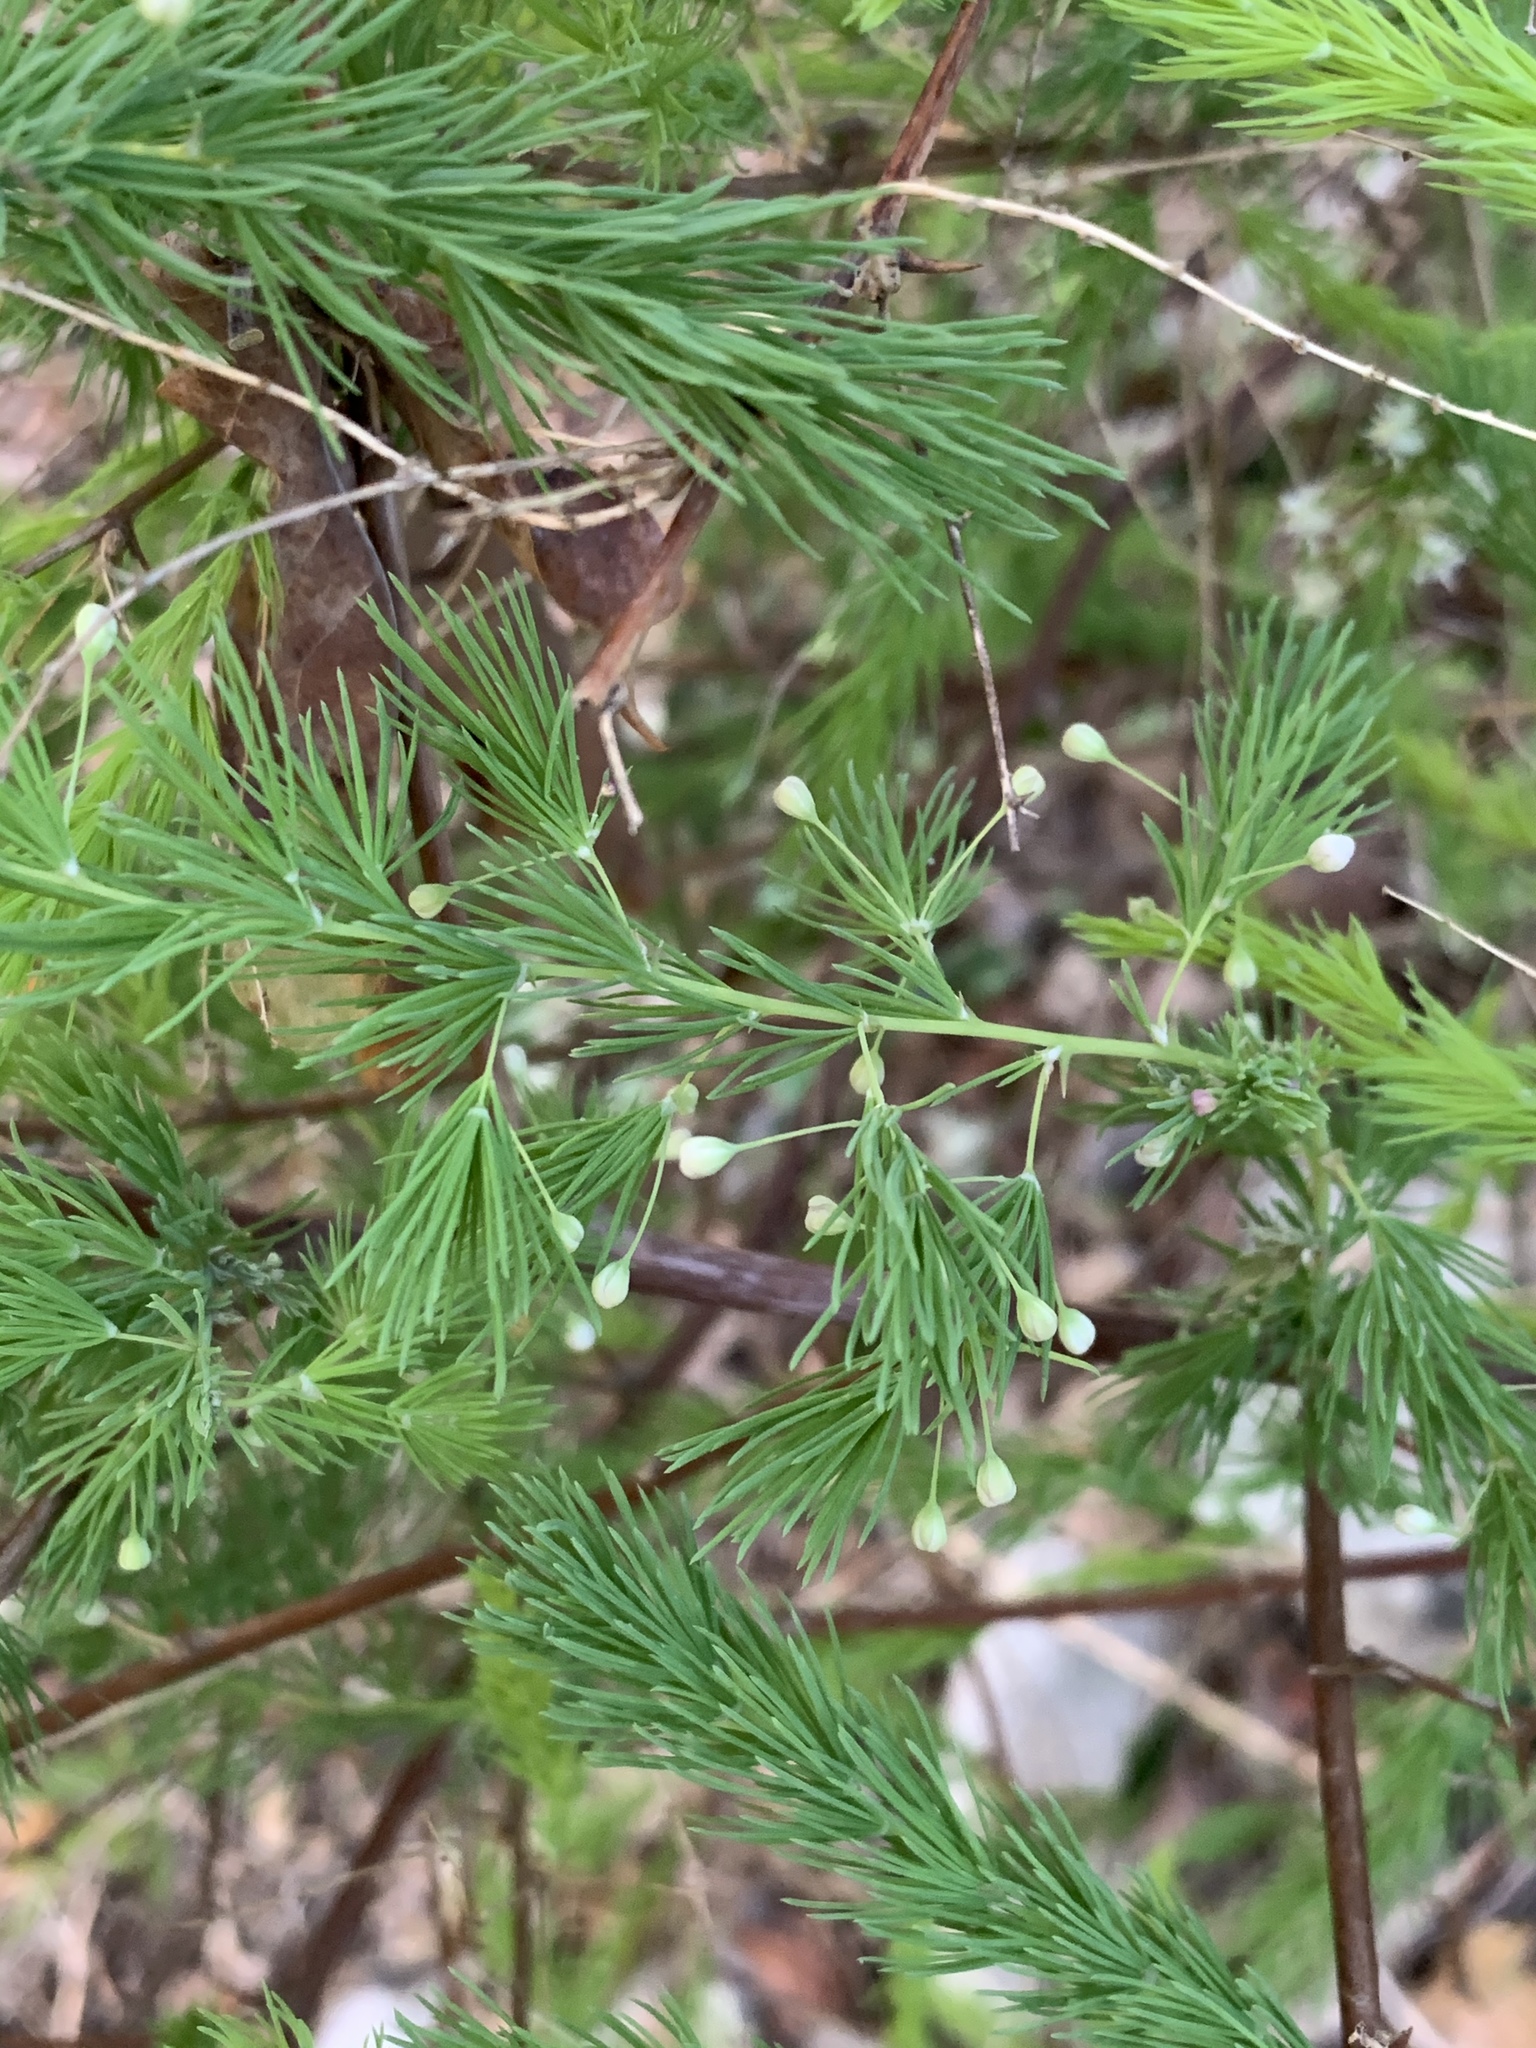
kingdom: Plantae
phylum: Tracheophyta
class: Liliopsida
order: Asparagales
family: Asparagaceae
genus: Asparagus
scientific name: Asparagus rubicundus
